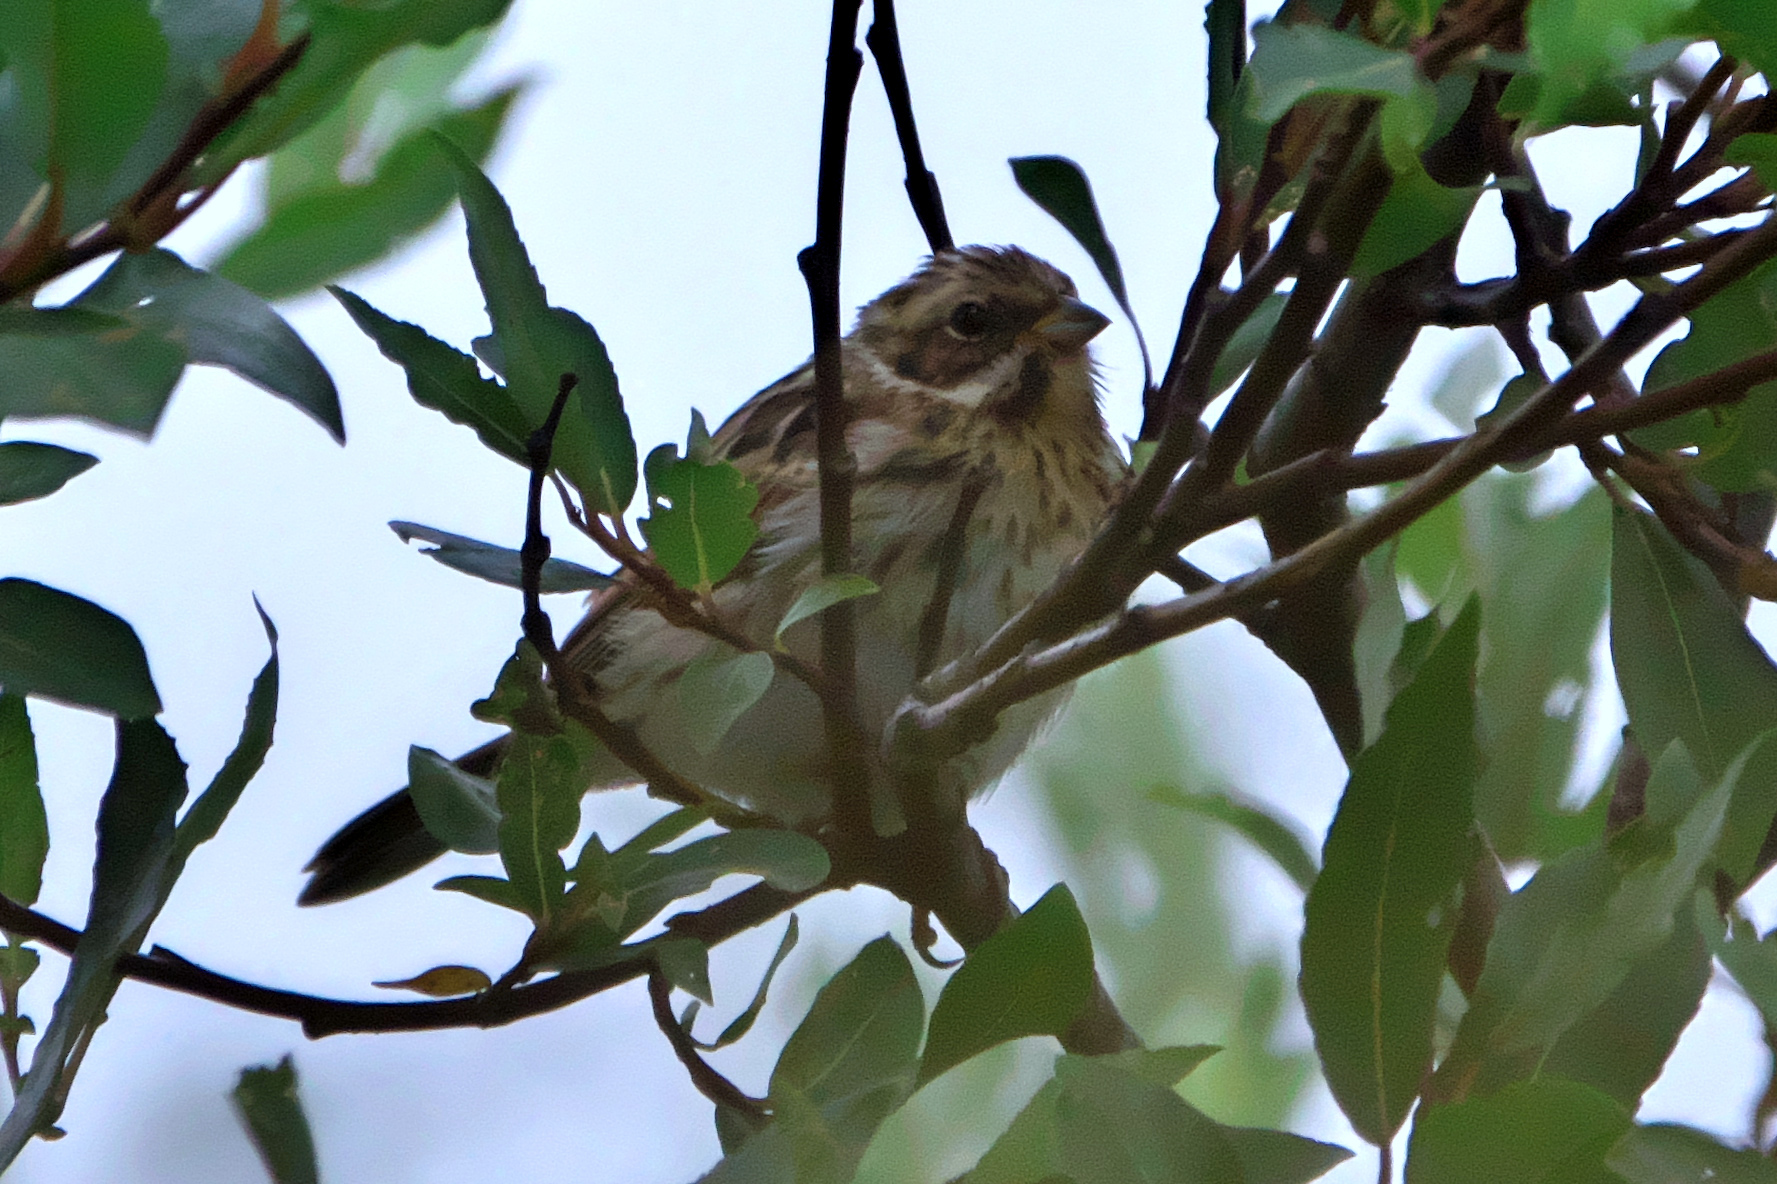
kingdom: Animalia
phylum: Chordata
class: Aves
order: Passeriformes
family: Emberizidae
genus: Emberiza
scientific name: Emberiza schoeniclus
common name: Reed bunting
